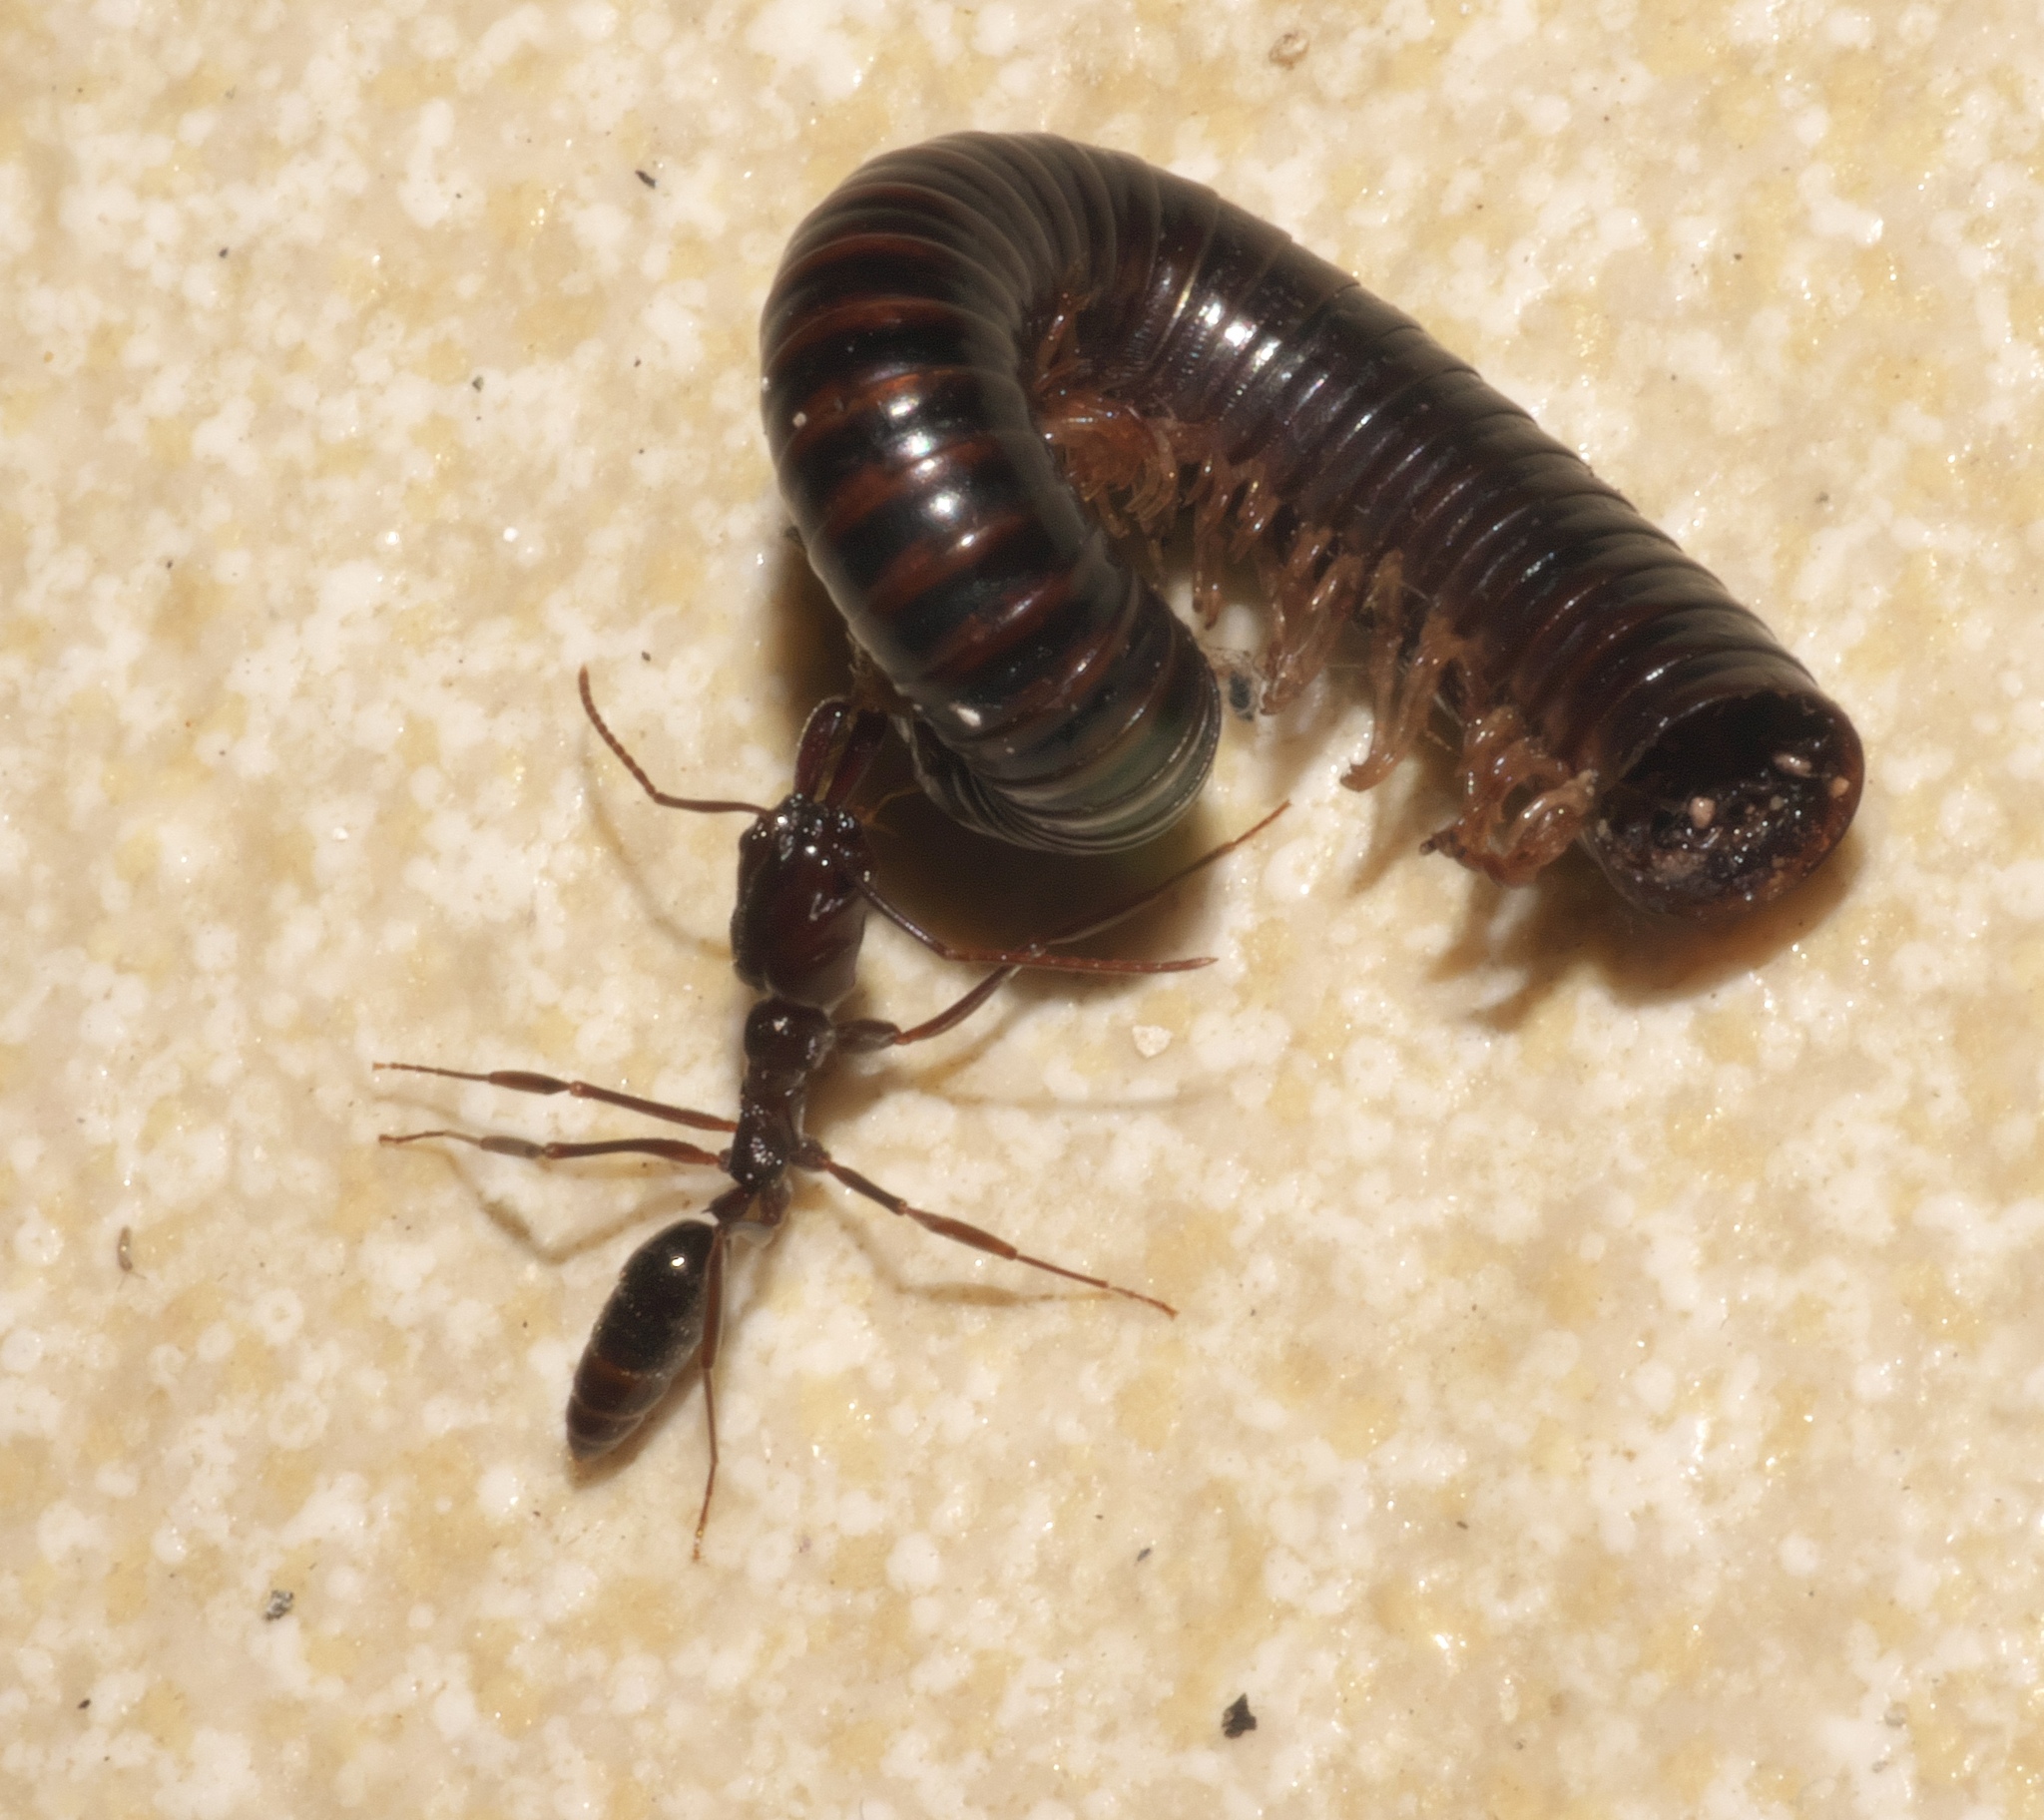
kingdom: Animalia
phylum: Arthropoda
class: Insecta
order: Hymenoptera
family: Formicidae
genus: Odontomachus
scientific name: Odontomachus simillimus
